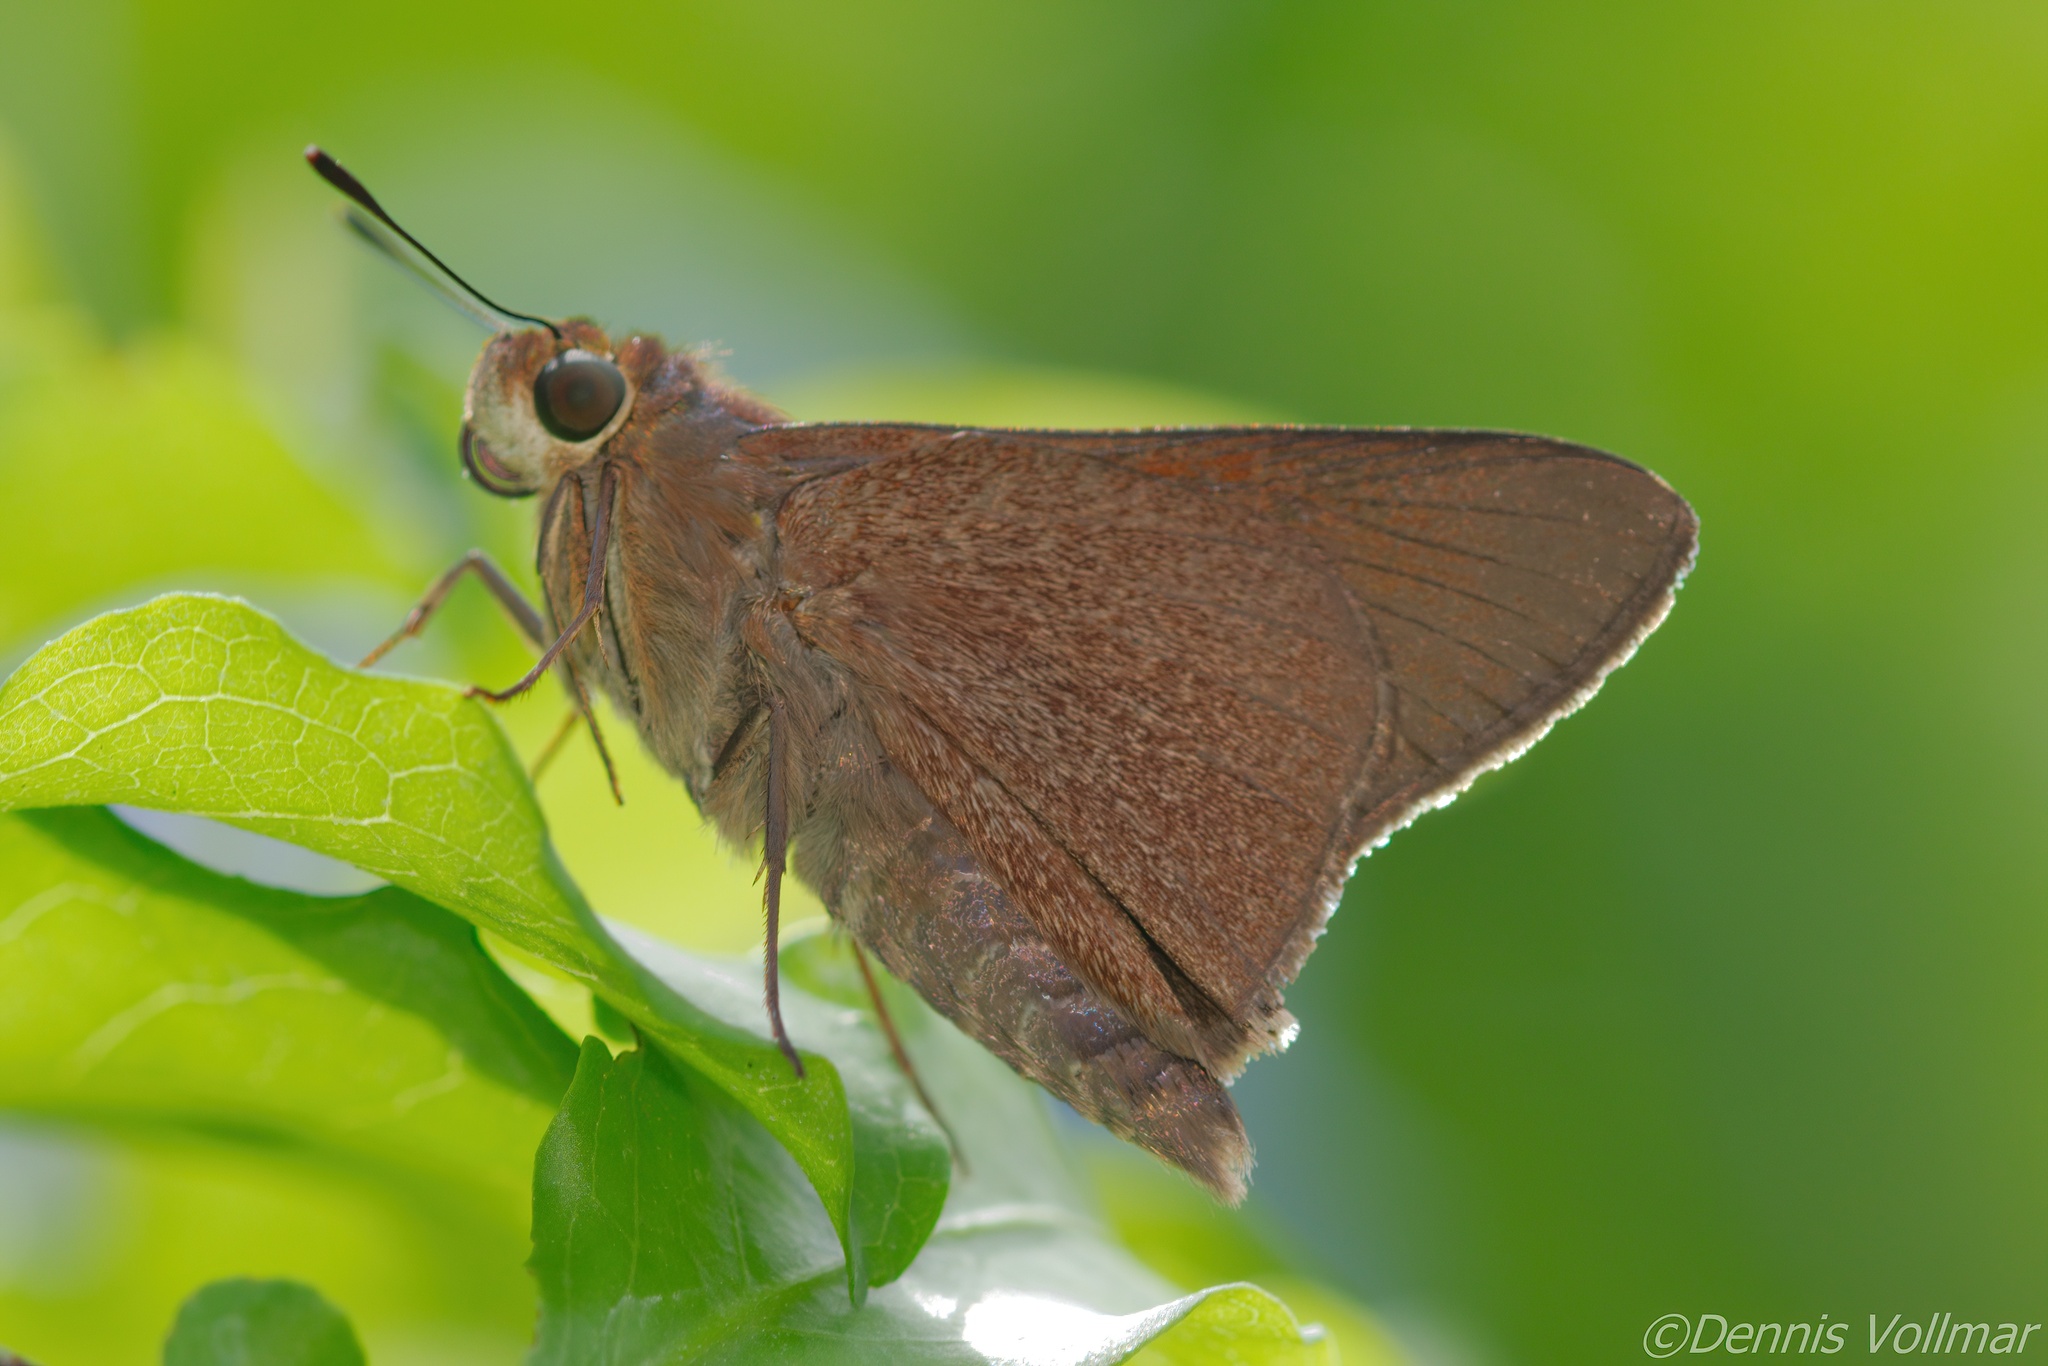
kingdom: Animalia
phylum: Arthropoda
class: Insecta
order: Lepidoptera
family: Hesperiidae
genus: Asbolis
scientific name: Asbolis capucinus
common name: Monk skipper
